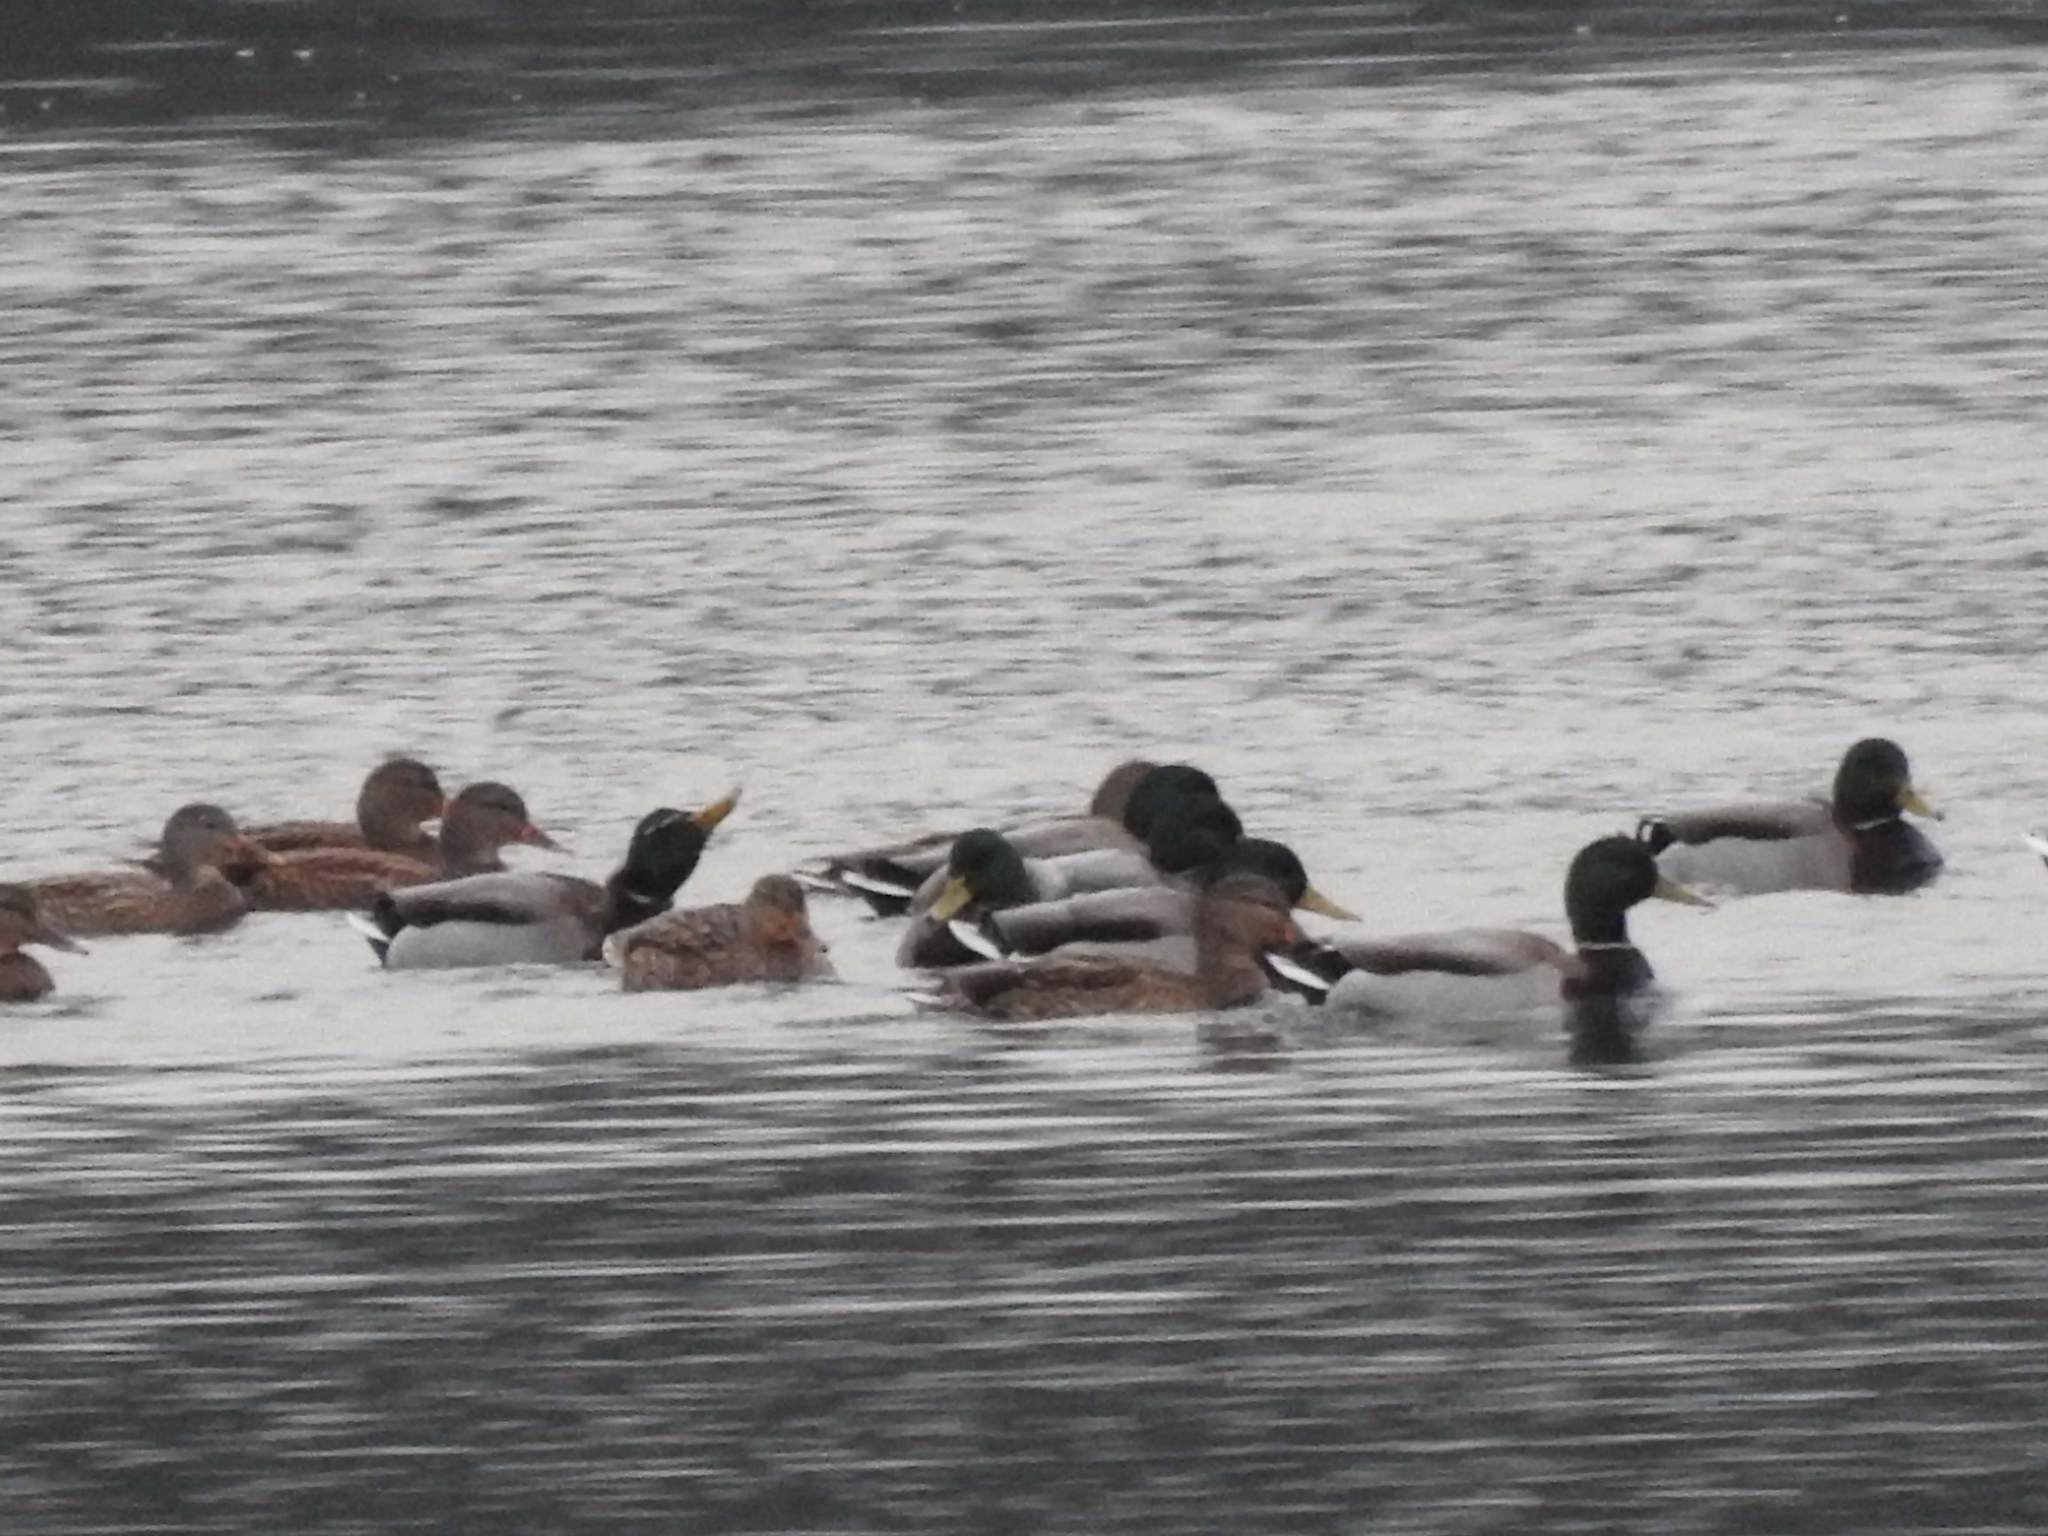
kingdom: Animalia
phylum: Chordata
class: Aves
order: Anseriformes
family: Anatidae
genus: Anas
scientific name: Anas platyrhynchos
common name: Mallard
